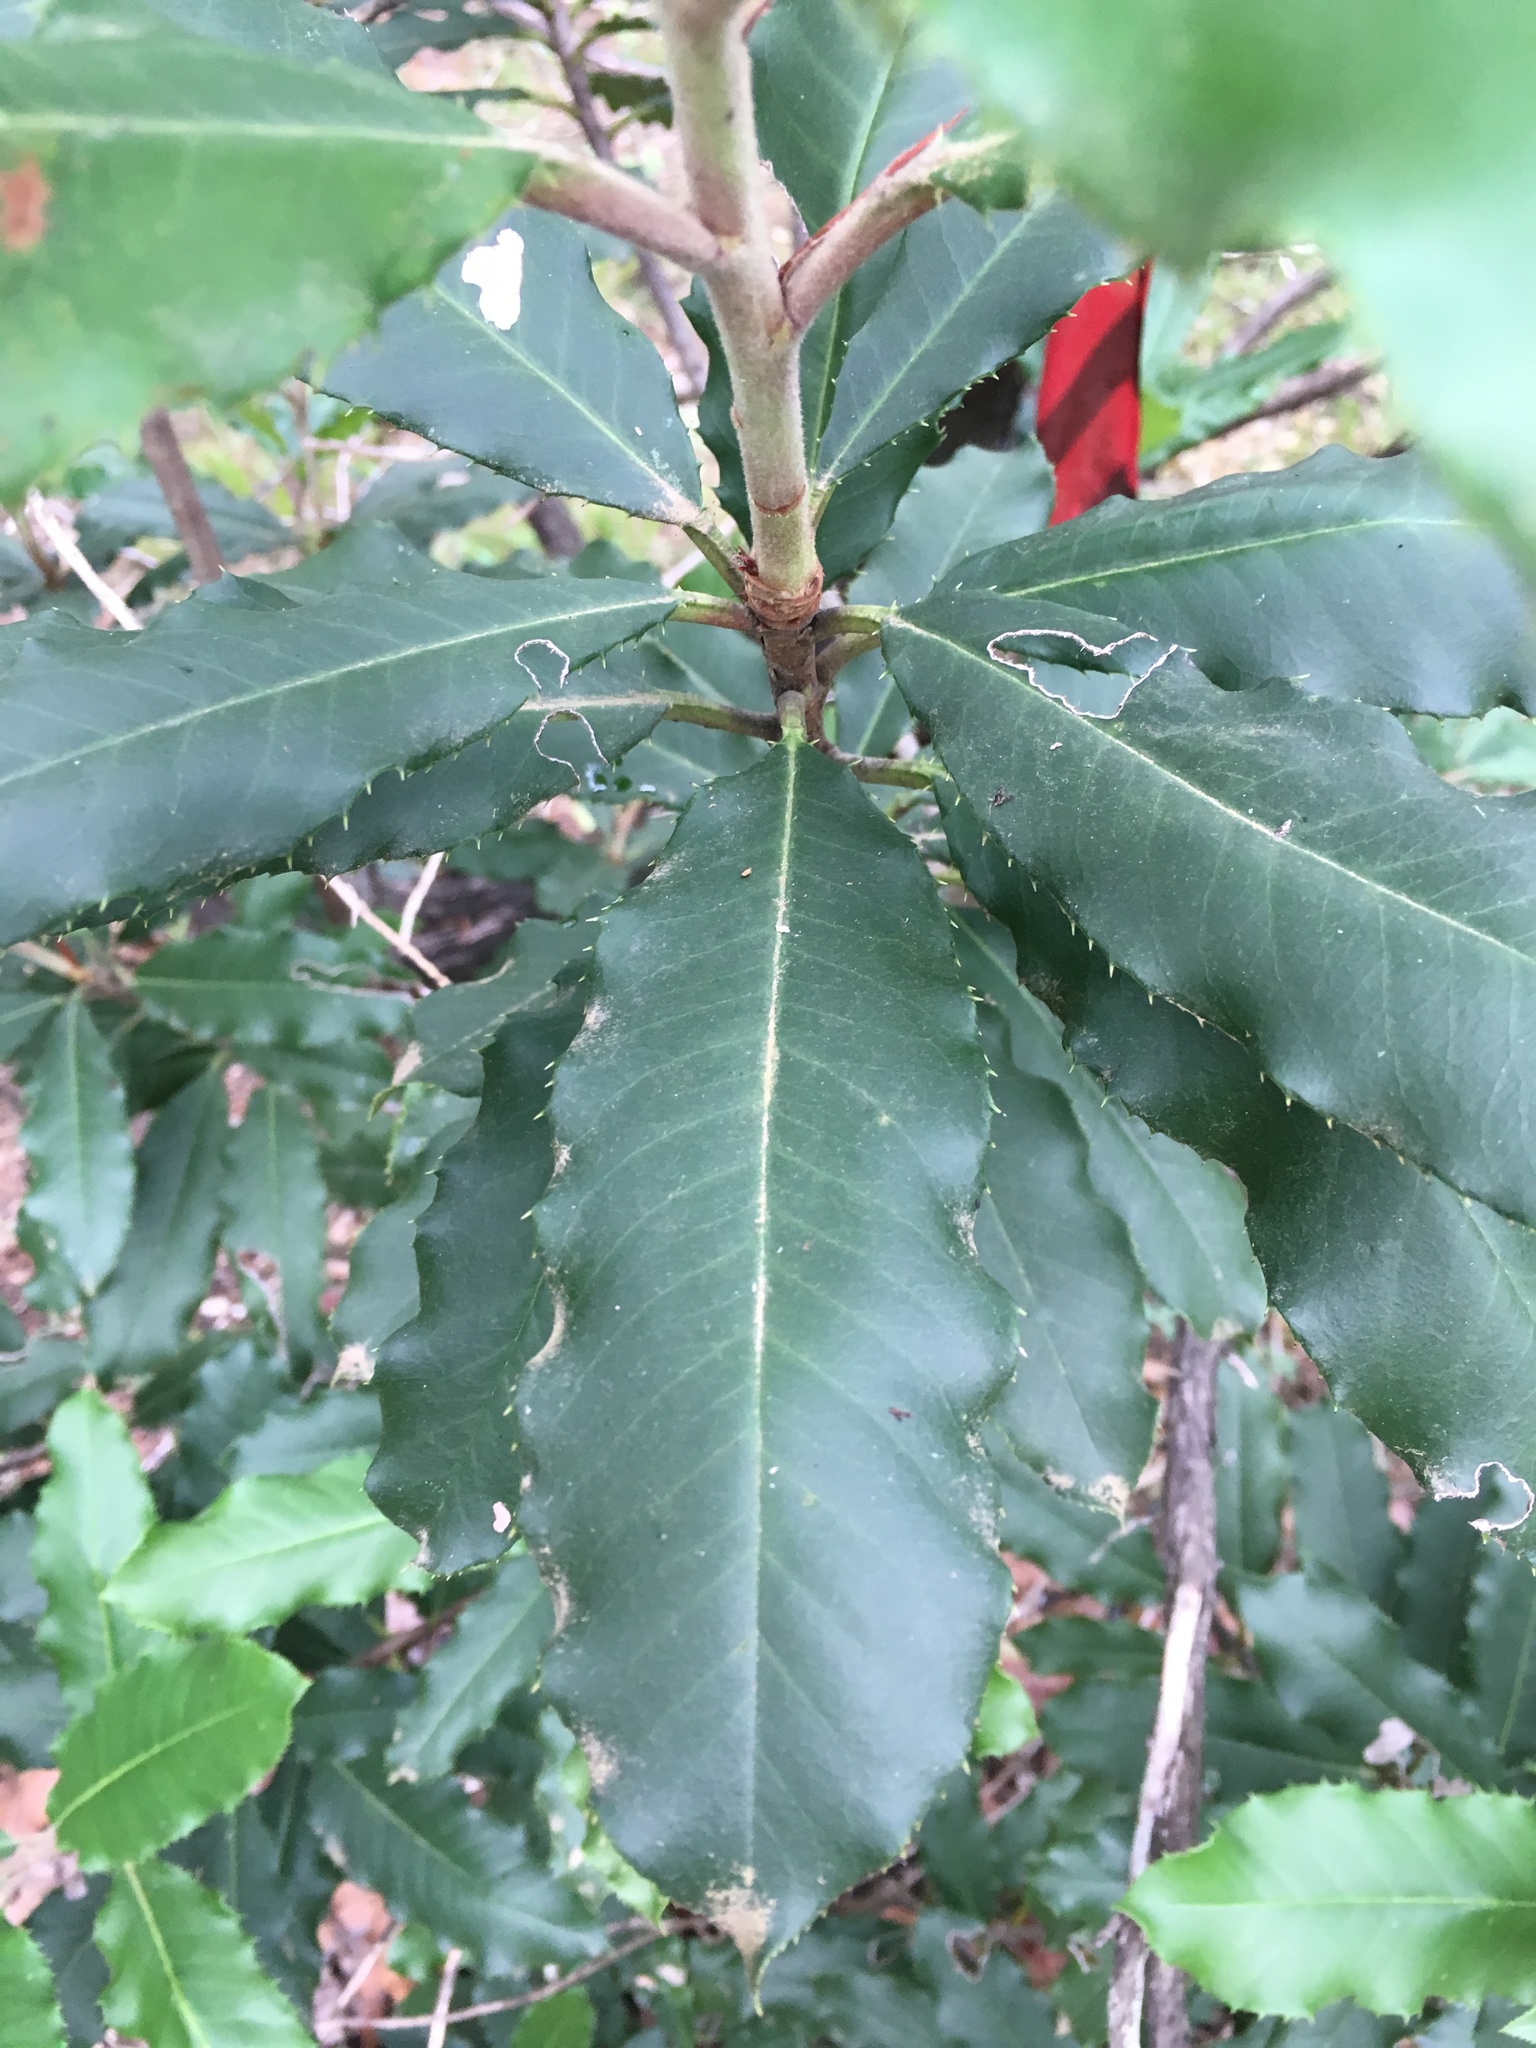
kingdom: Plantae
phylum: Tracheophyta
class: Magnoliopsida
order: Rosales
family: Rosaceae
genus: Photinia
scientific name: Photinia serratifolia
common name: Taiwanese photinia
